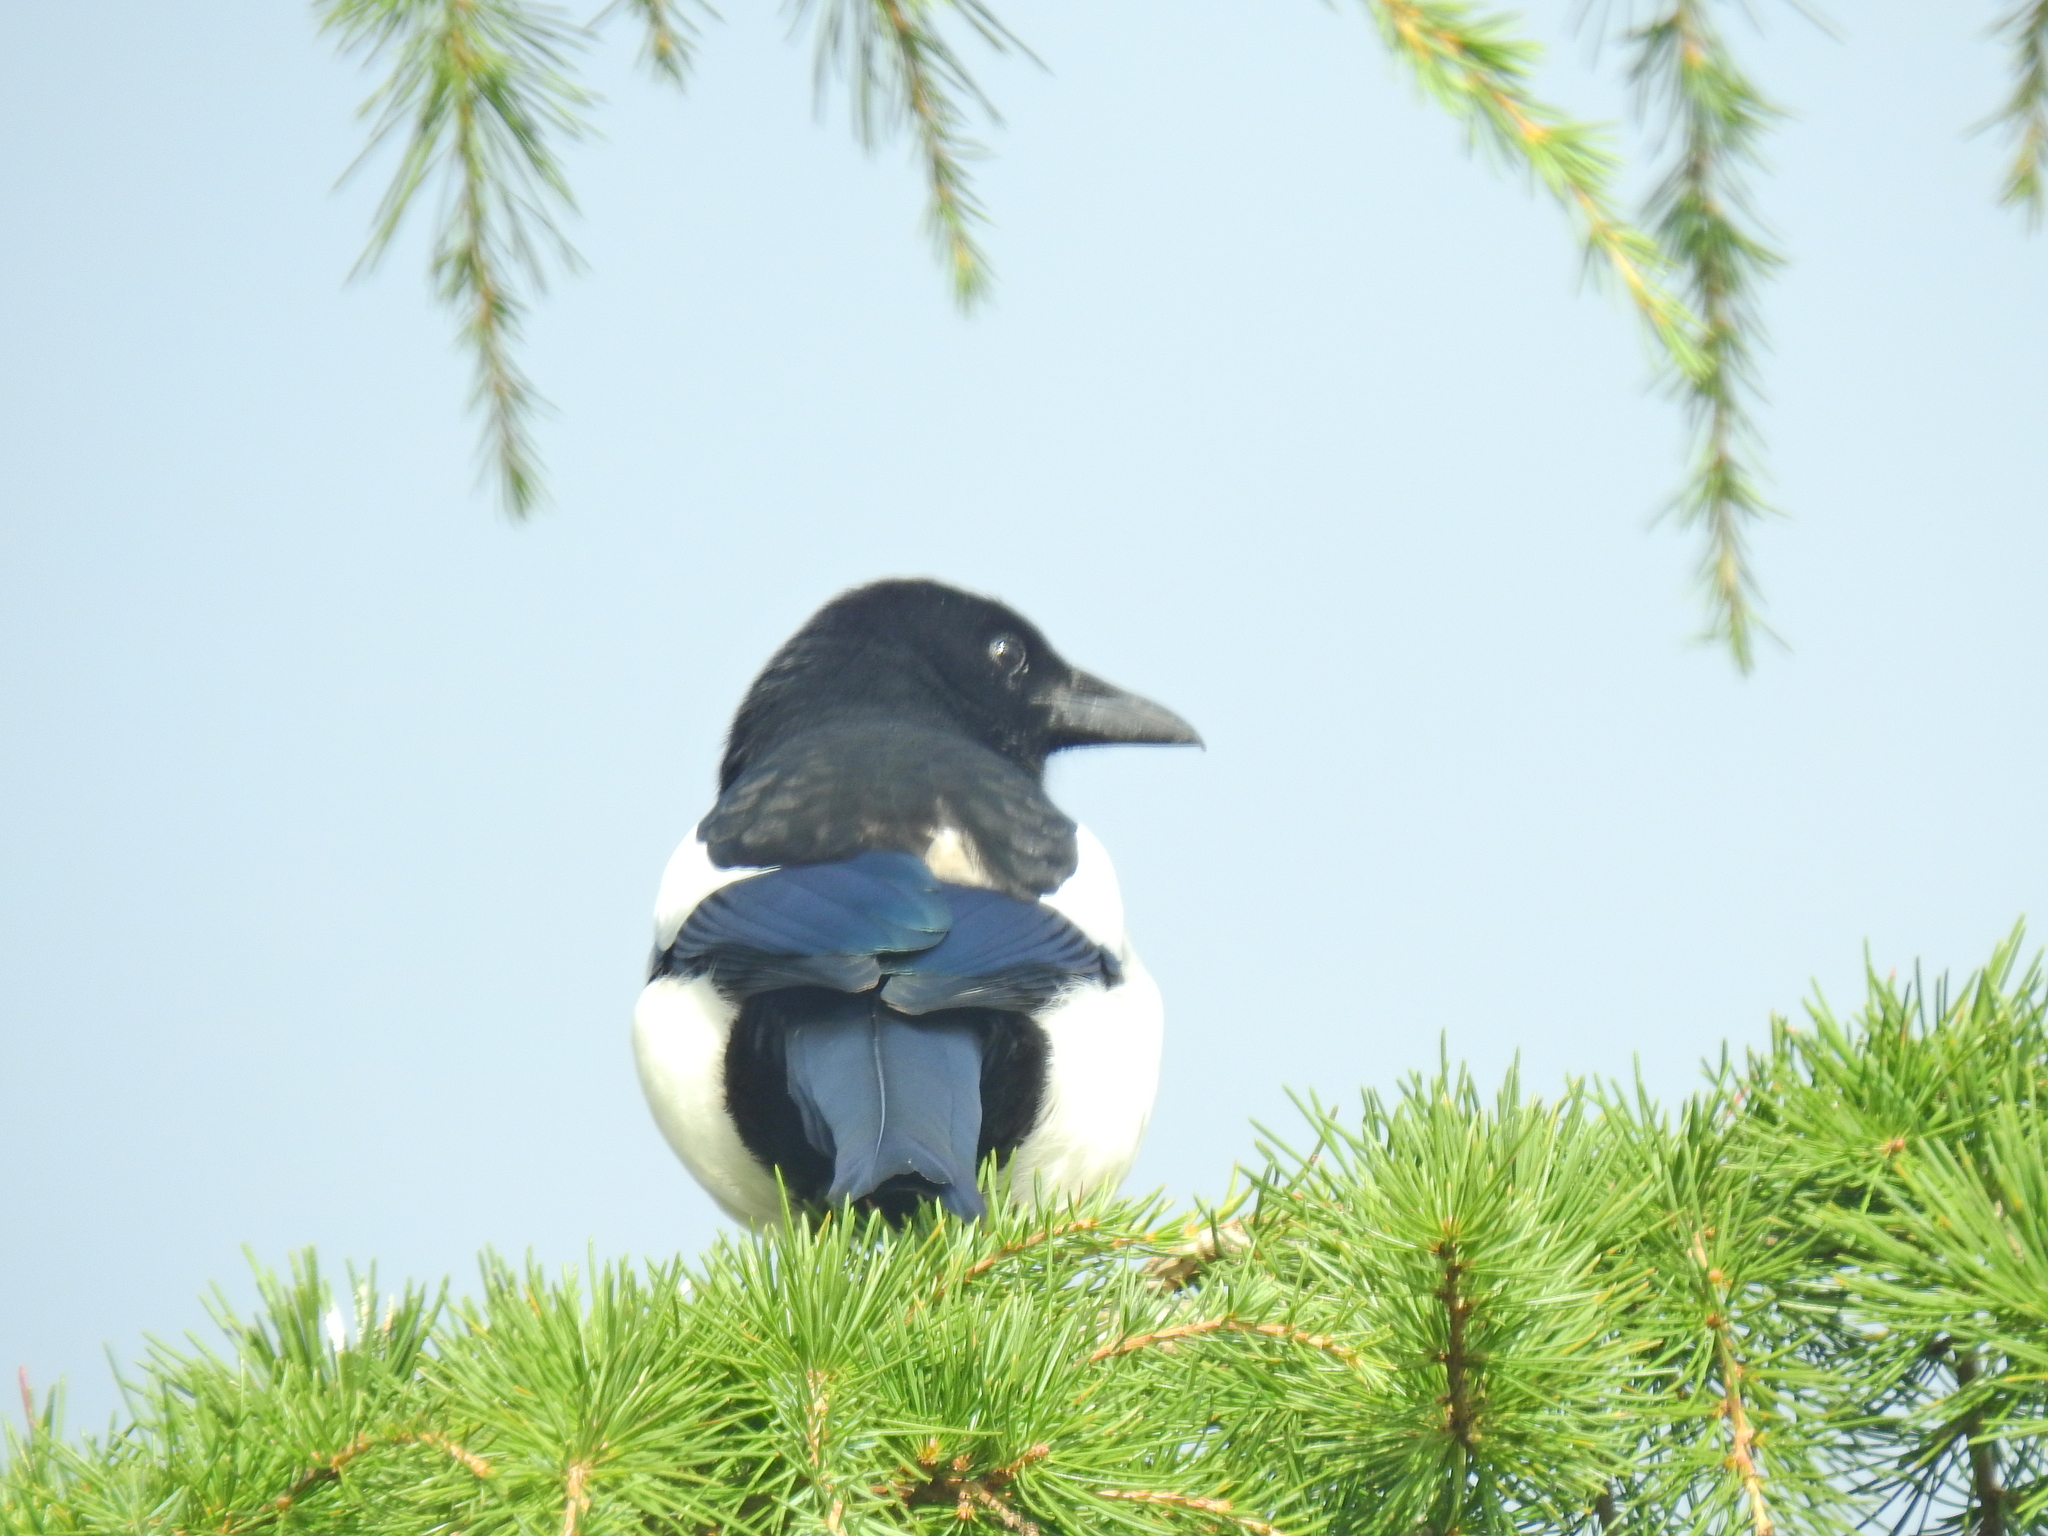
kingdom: Animalia
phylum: Chordata
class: Aves
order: Passeriformes
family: Corvidae
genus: Pica
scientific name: Pica pica
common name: Eurasian magpie
